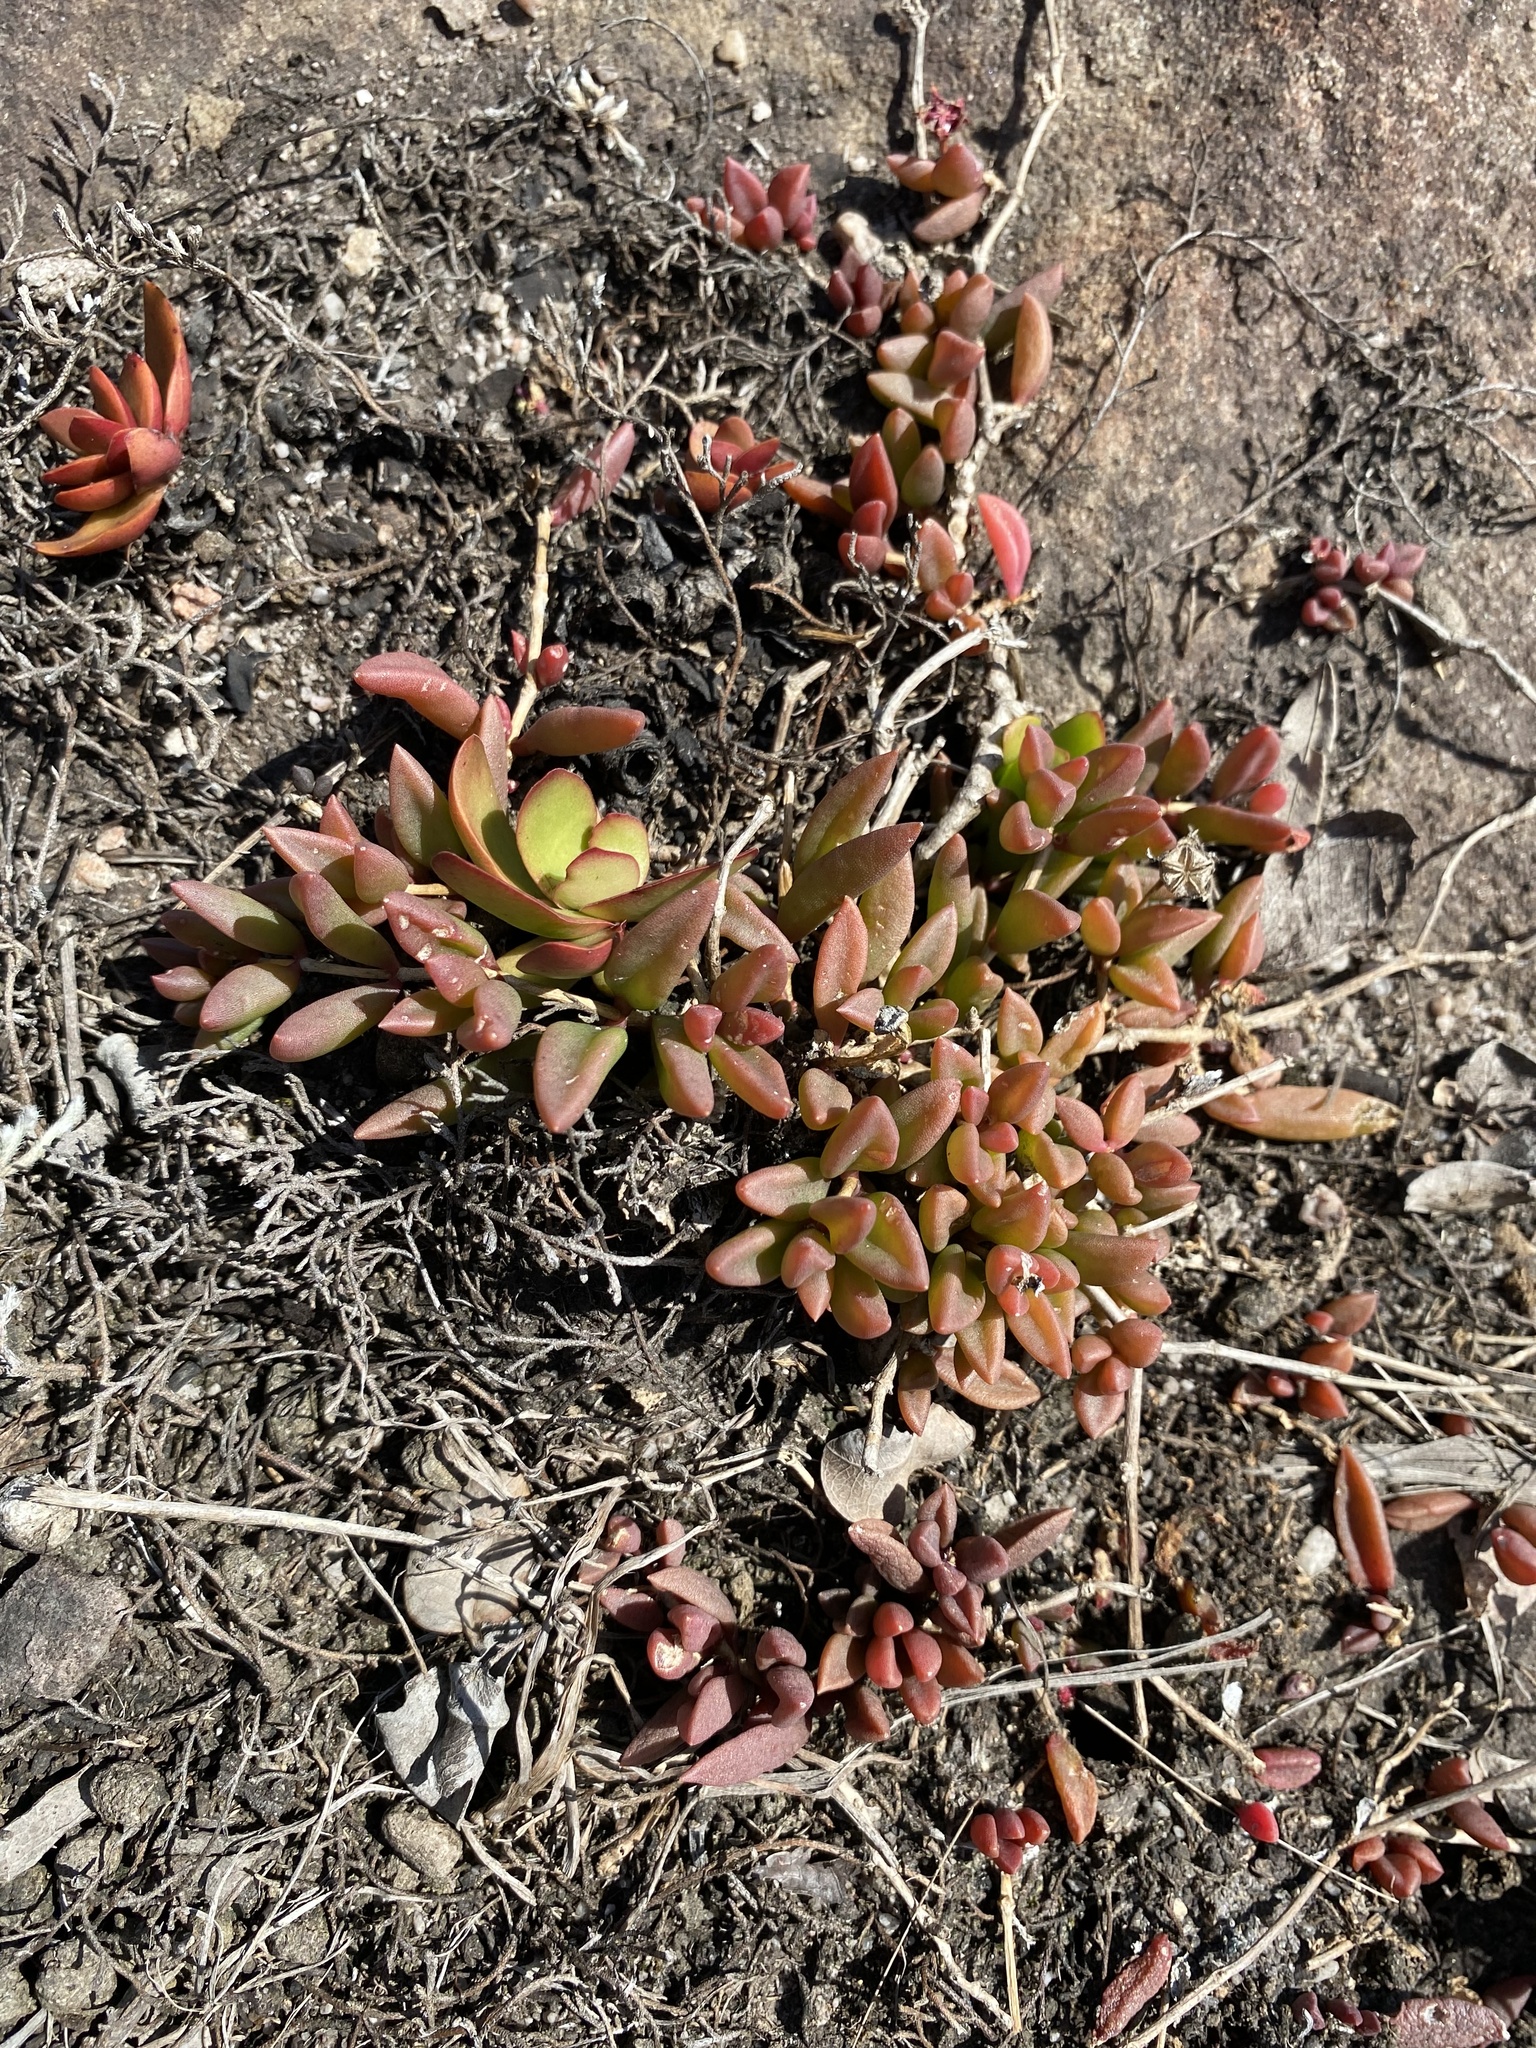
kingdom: Plantae
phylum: Tracheophyta
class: Magnoliopsida
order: Caryophyllales
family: Aizoaceae
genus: Delosperma
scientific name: Delosperma repens
